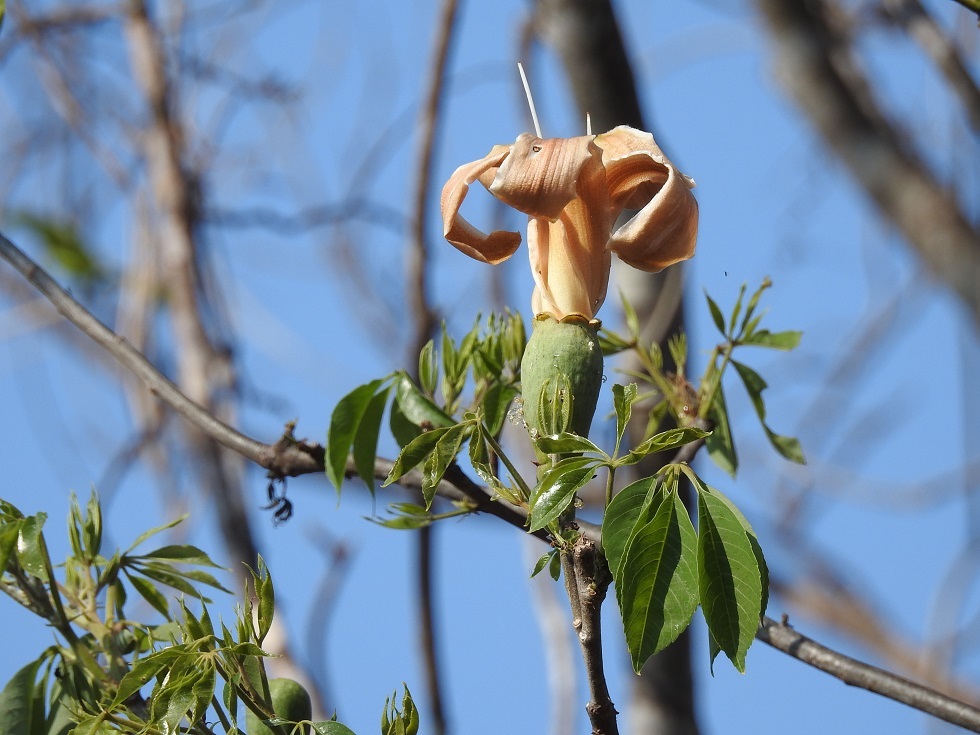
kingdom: Plantae
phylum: Tracheophyta
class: Magnoliopsida
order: Malvales
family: Malvaceae
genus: Ceiba
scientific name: Ceiba aesculifolia
